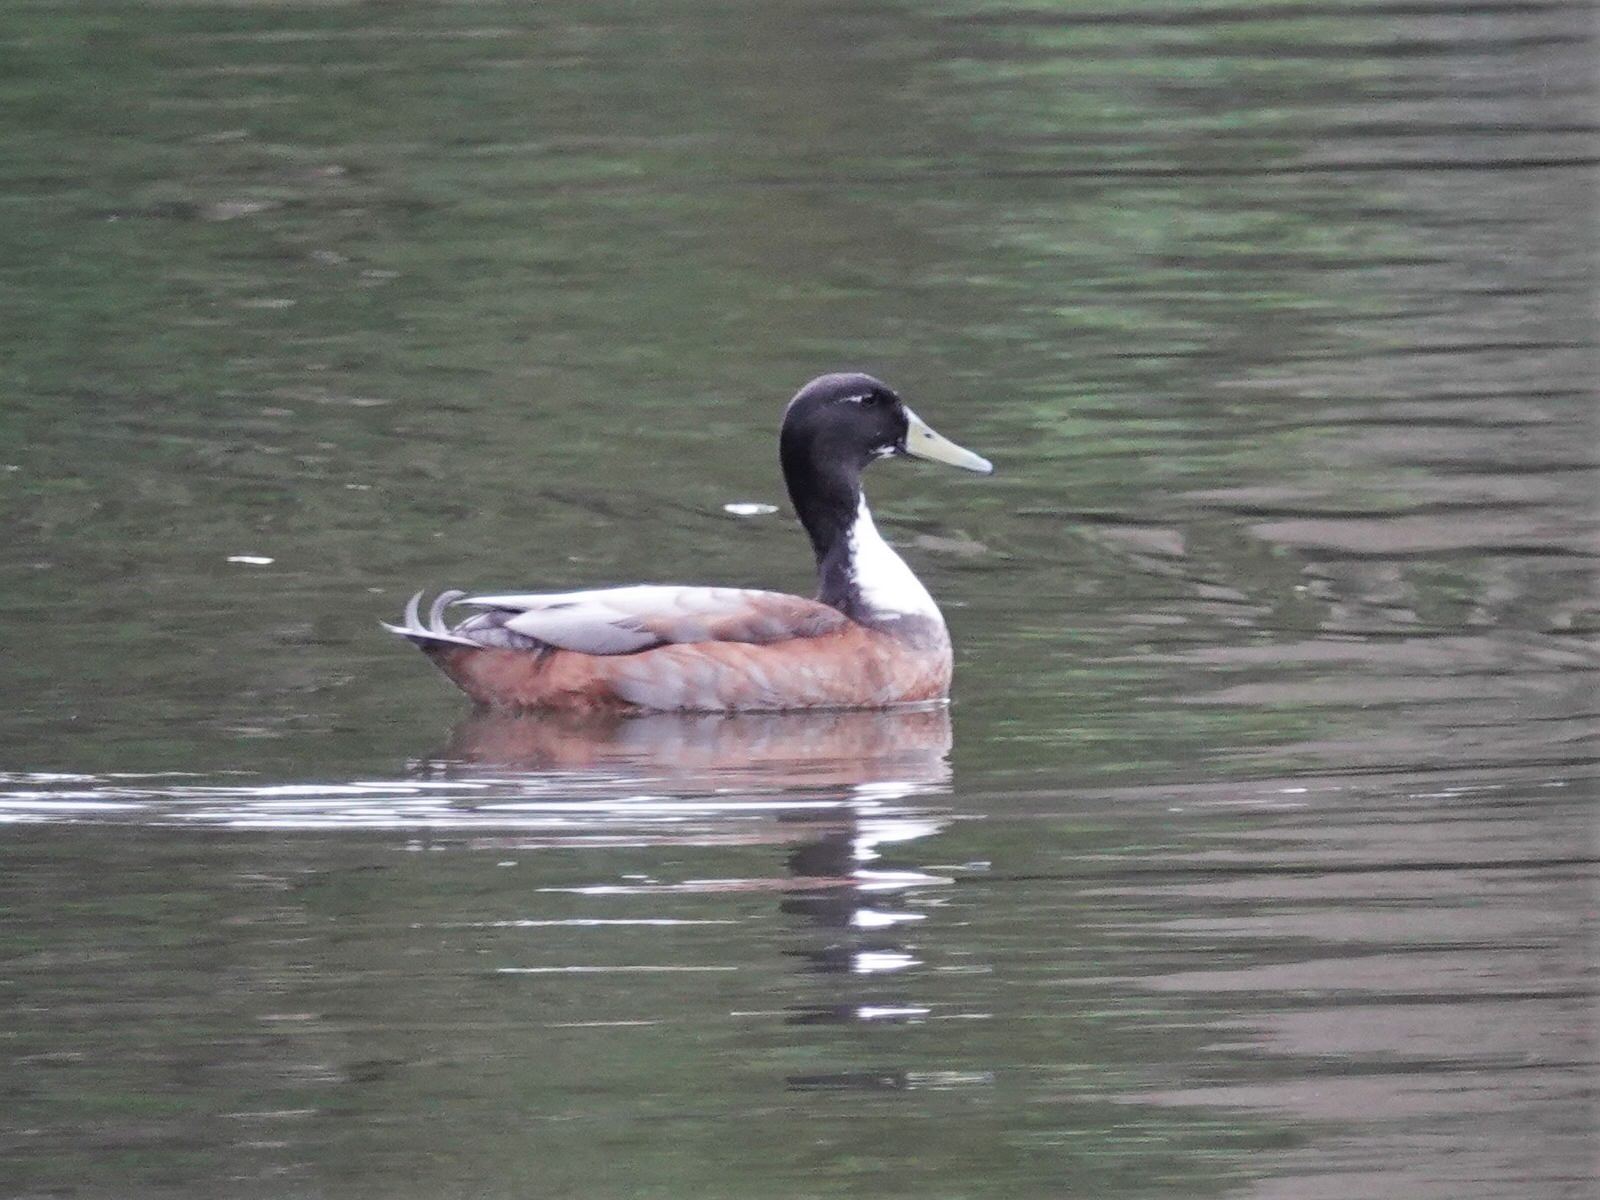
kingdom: Animalia
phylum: Chordata
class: Aves
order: Anseriformes
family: Anatidae
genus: Anas
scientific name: Anas platyrhynchos
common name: Mallard
